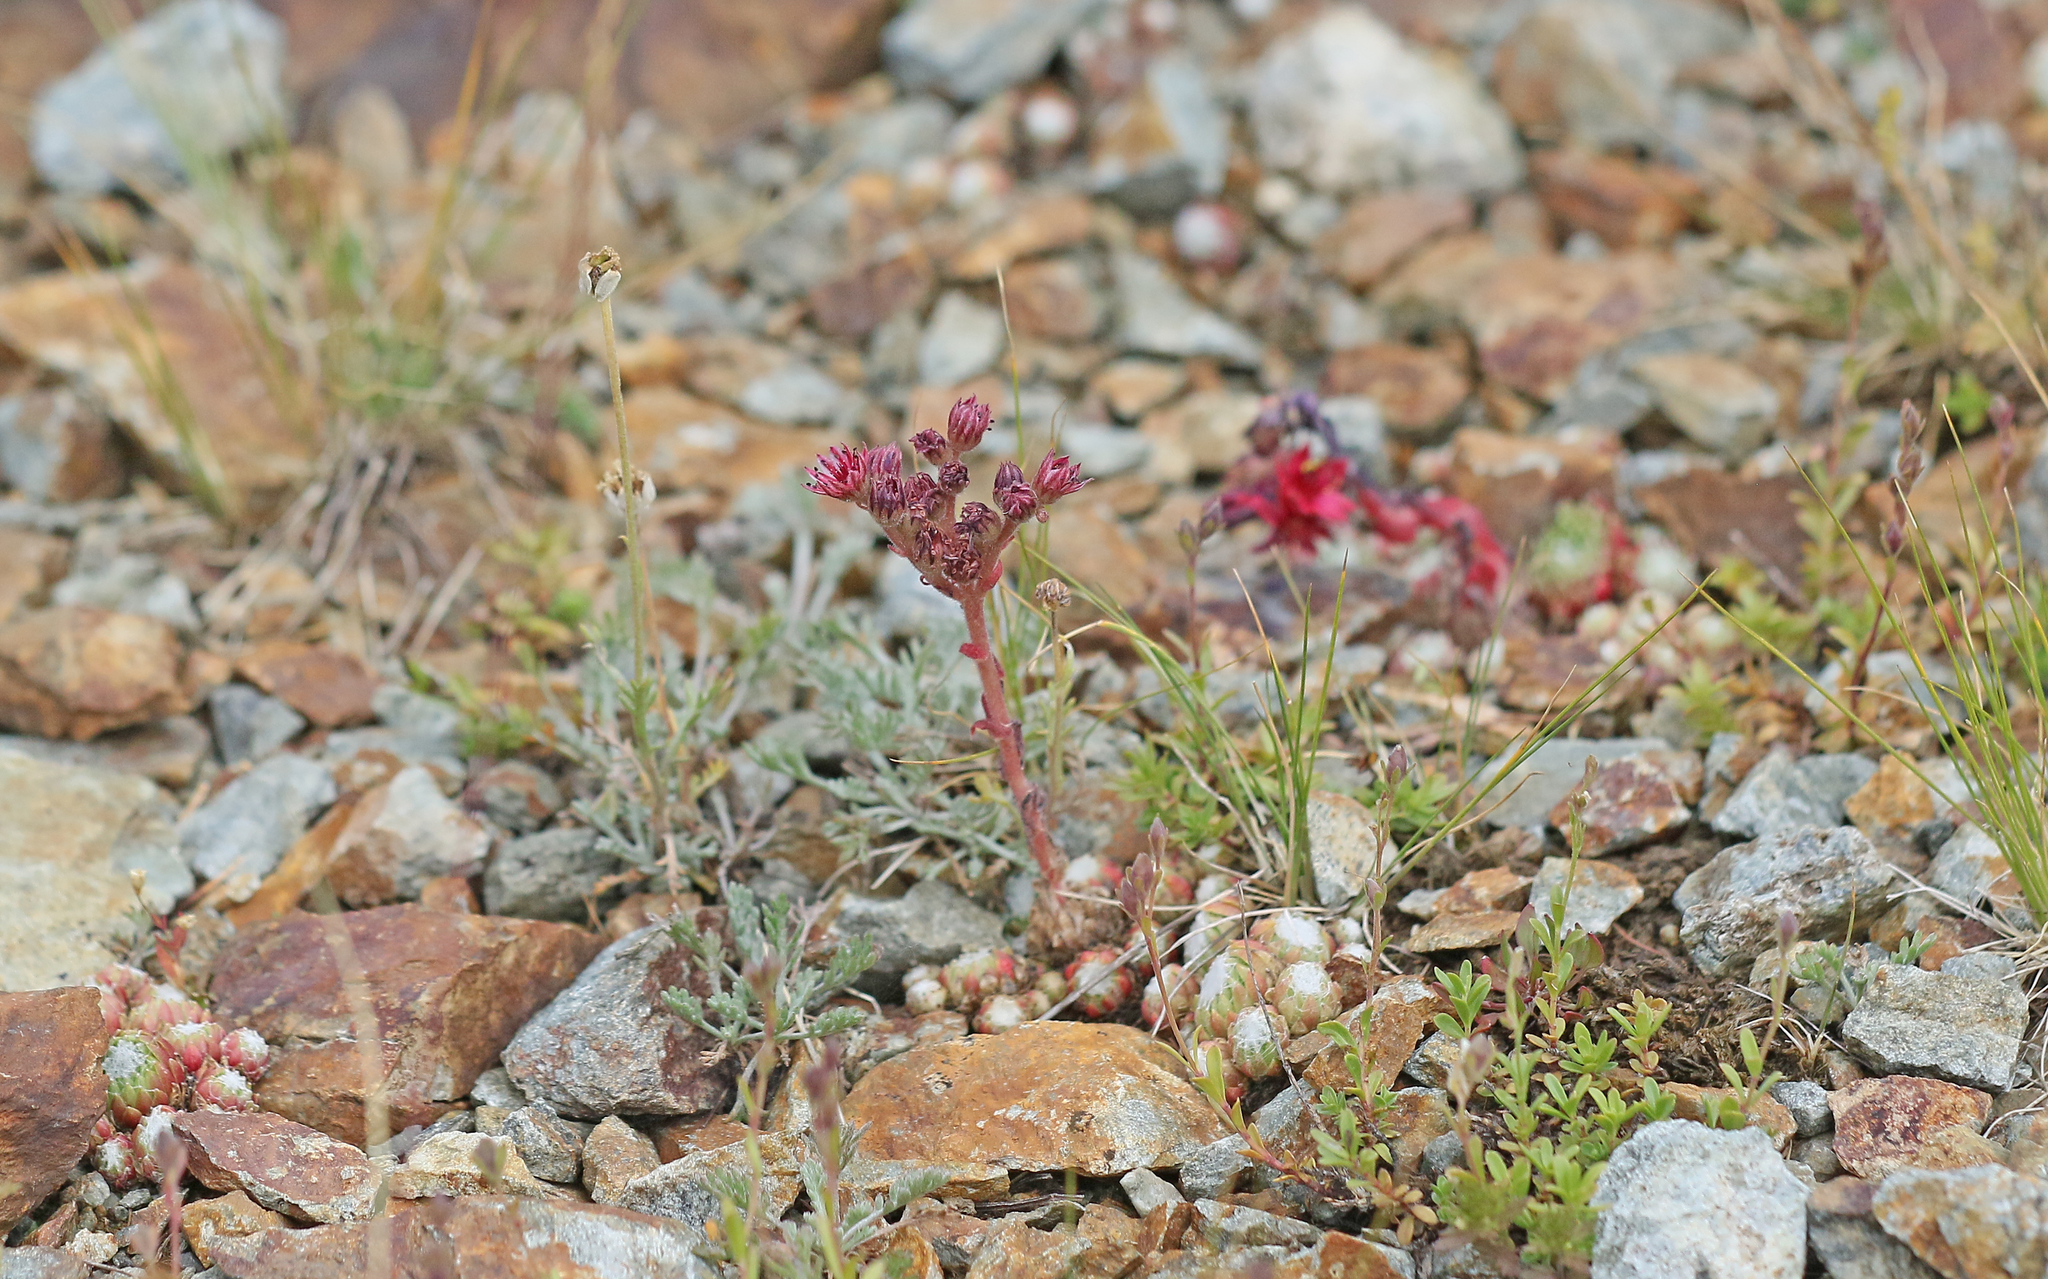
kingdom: Plantae
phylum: Tracheophyta
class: Magnoliopsida
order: Saxifragales
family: Crassulaceae
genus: Sempervivum
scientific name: Sempervivum arachnoideum
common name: Cobweb house-leek
